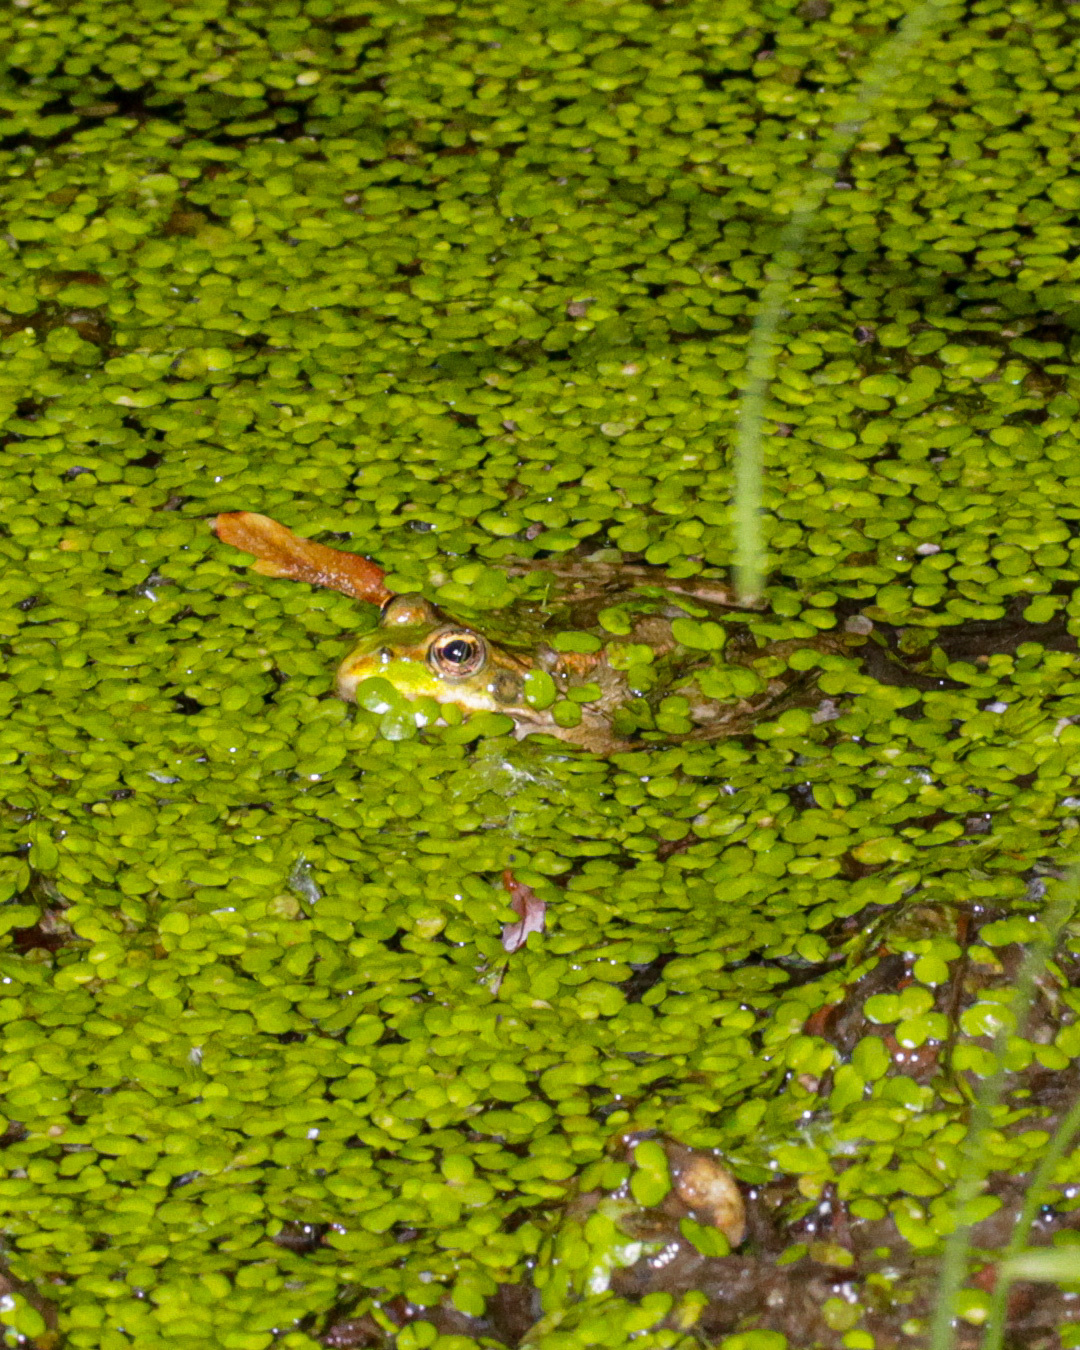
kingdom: Animalia
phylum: Chordata
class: Amphibia
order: Anura
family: Ranidae
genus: Pelophylax
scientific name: Pelophylax
